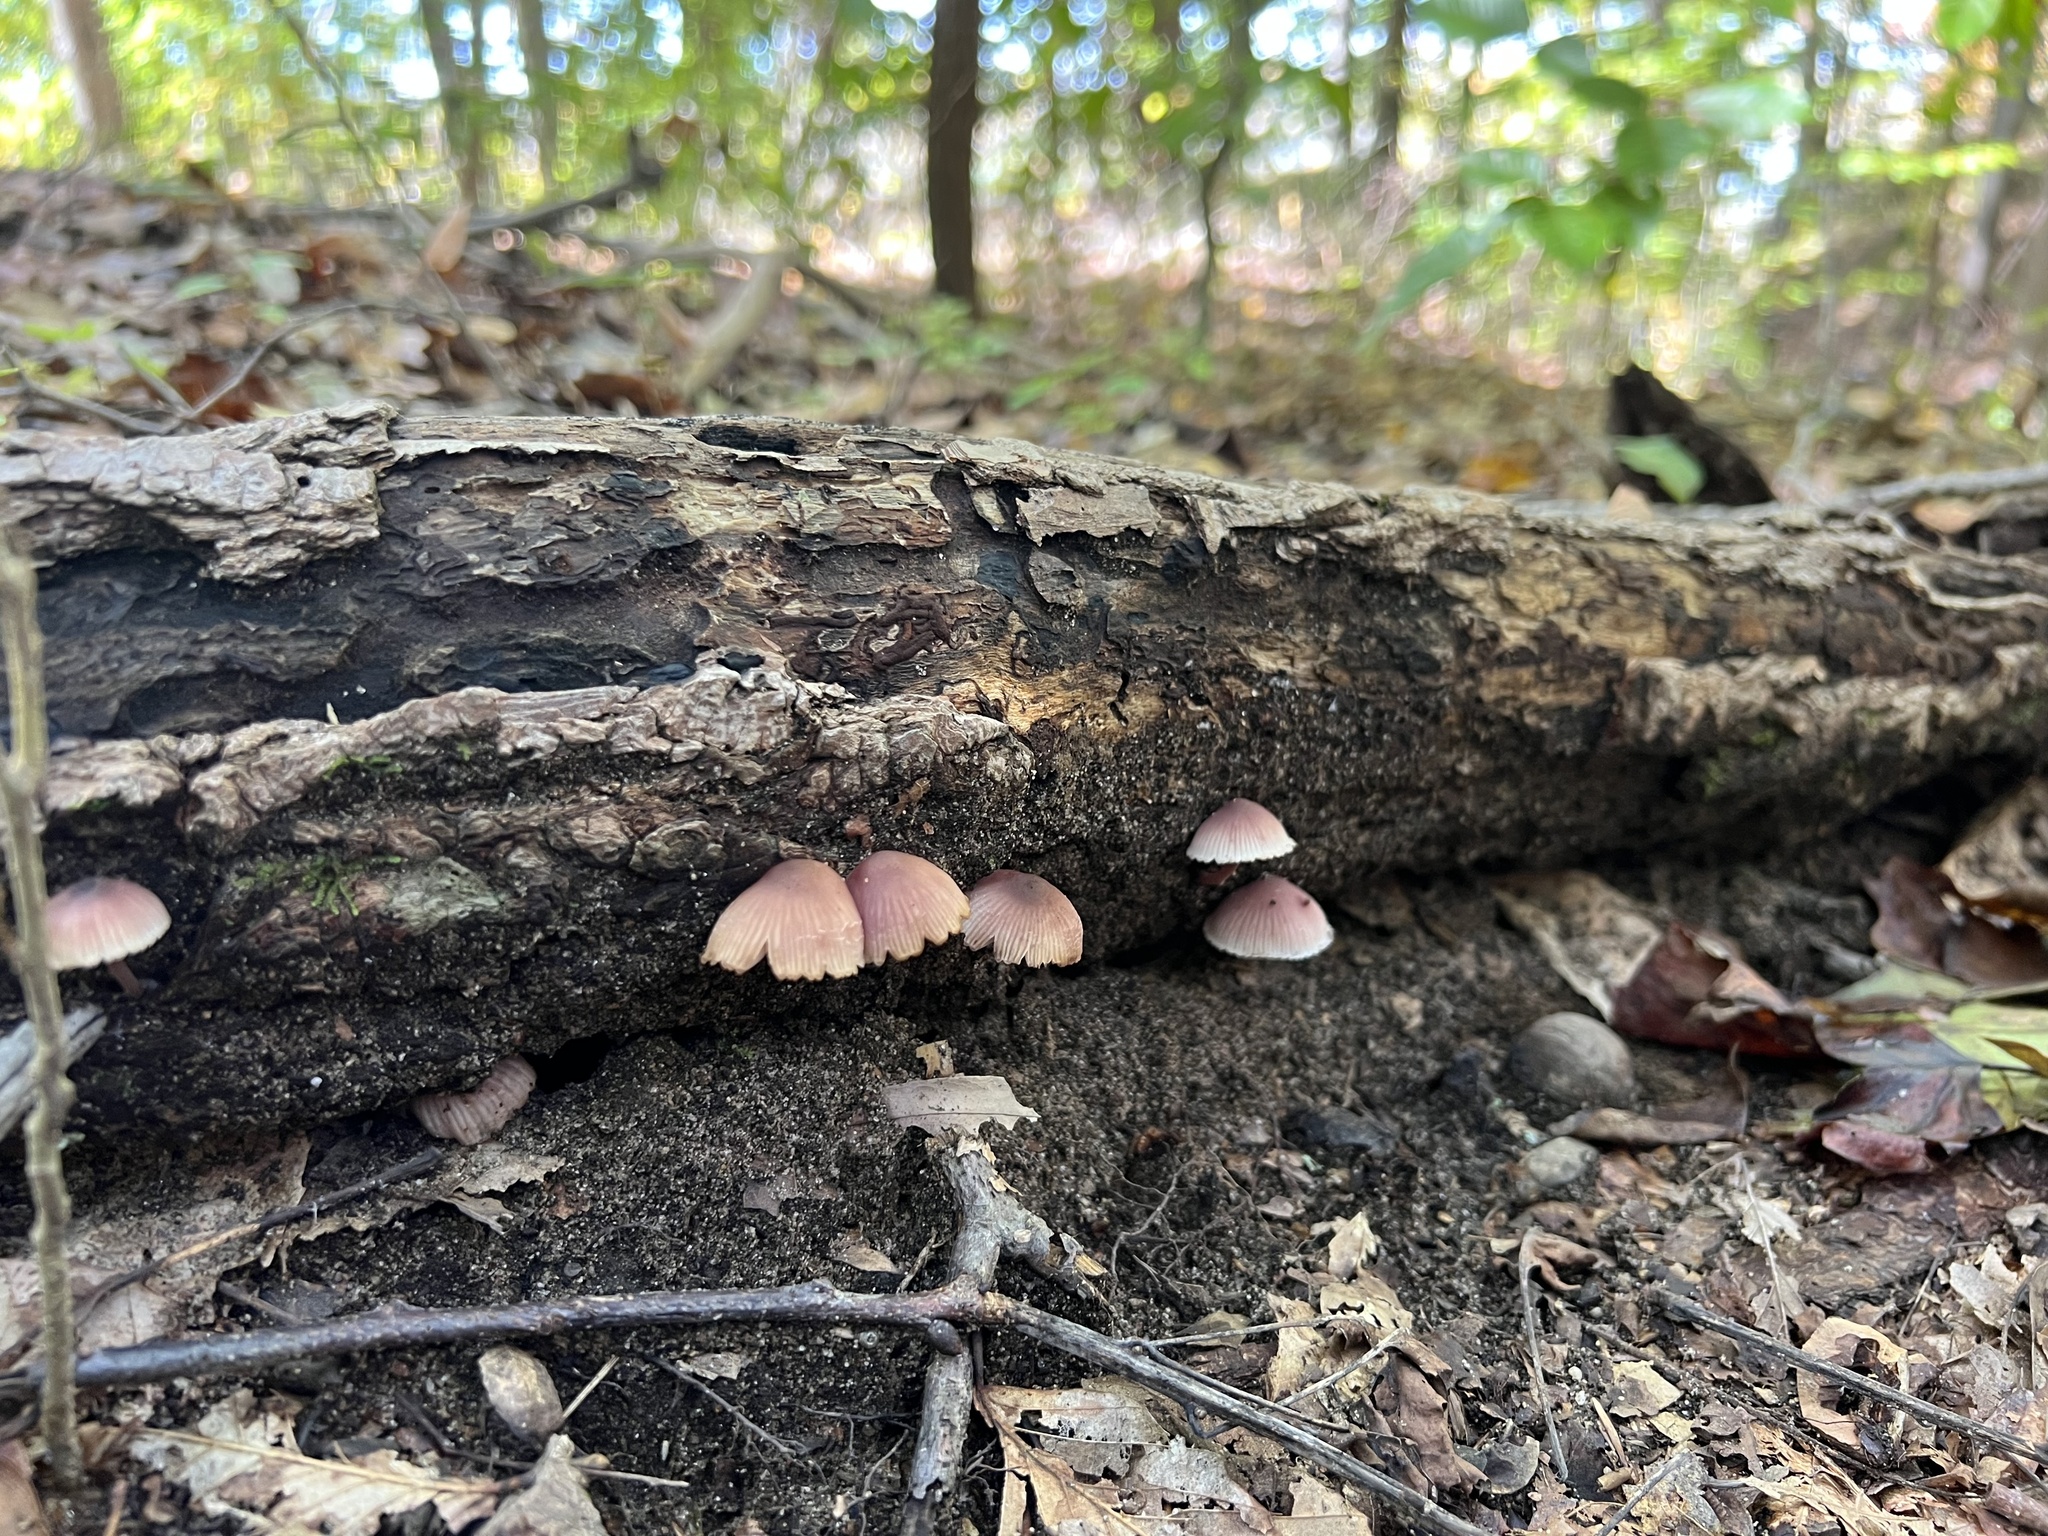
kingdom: Fungi
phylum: Basidiomycota
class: Agaricomycetes
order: Agaricales
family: Mycenaceae
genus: Mycena
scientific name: Mycena haematopus
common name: Burgundydrop bonnet
